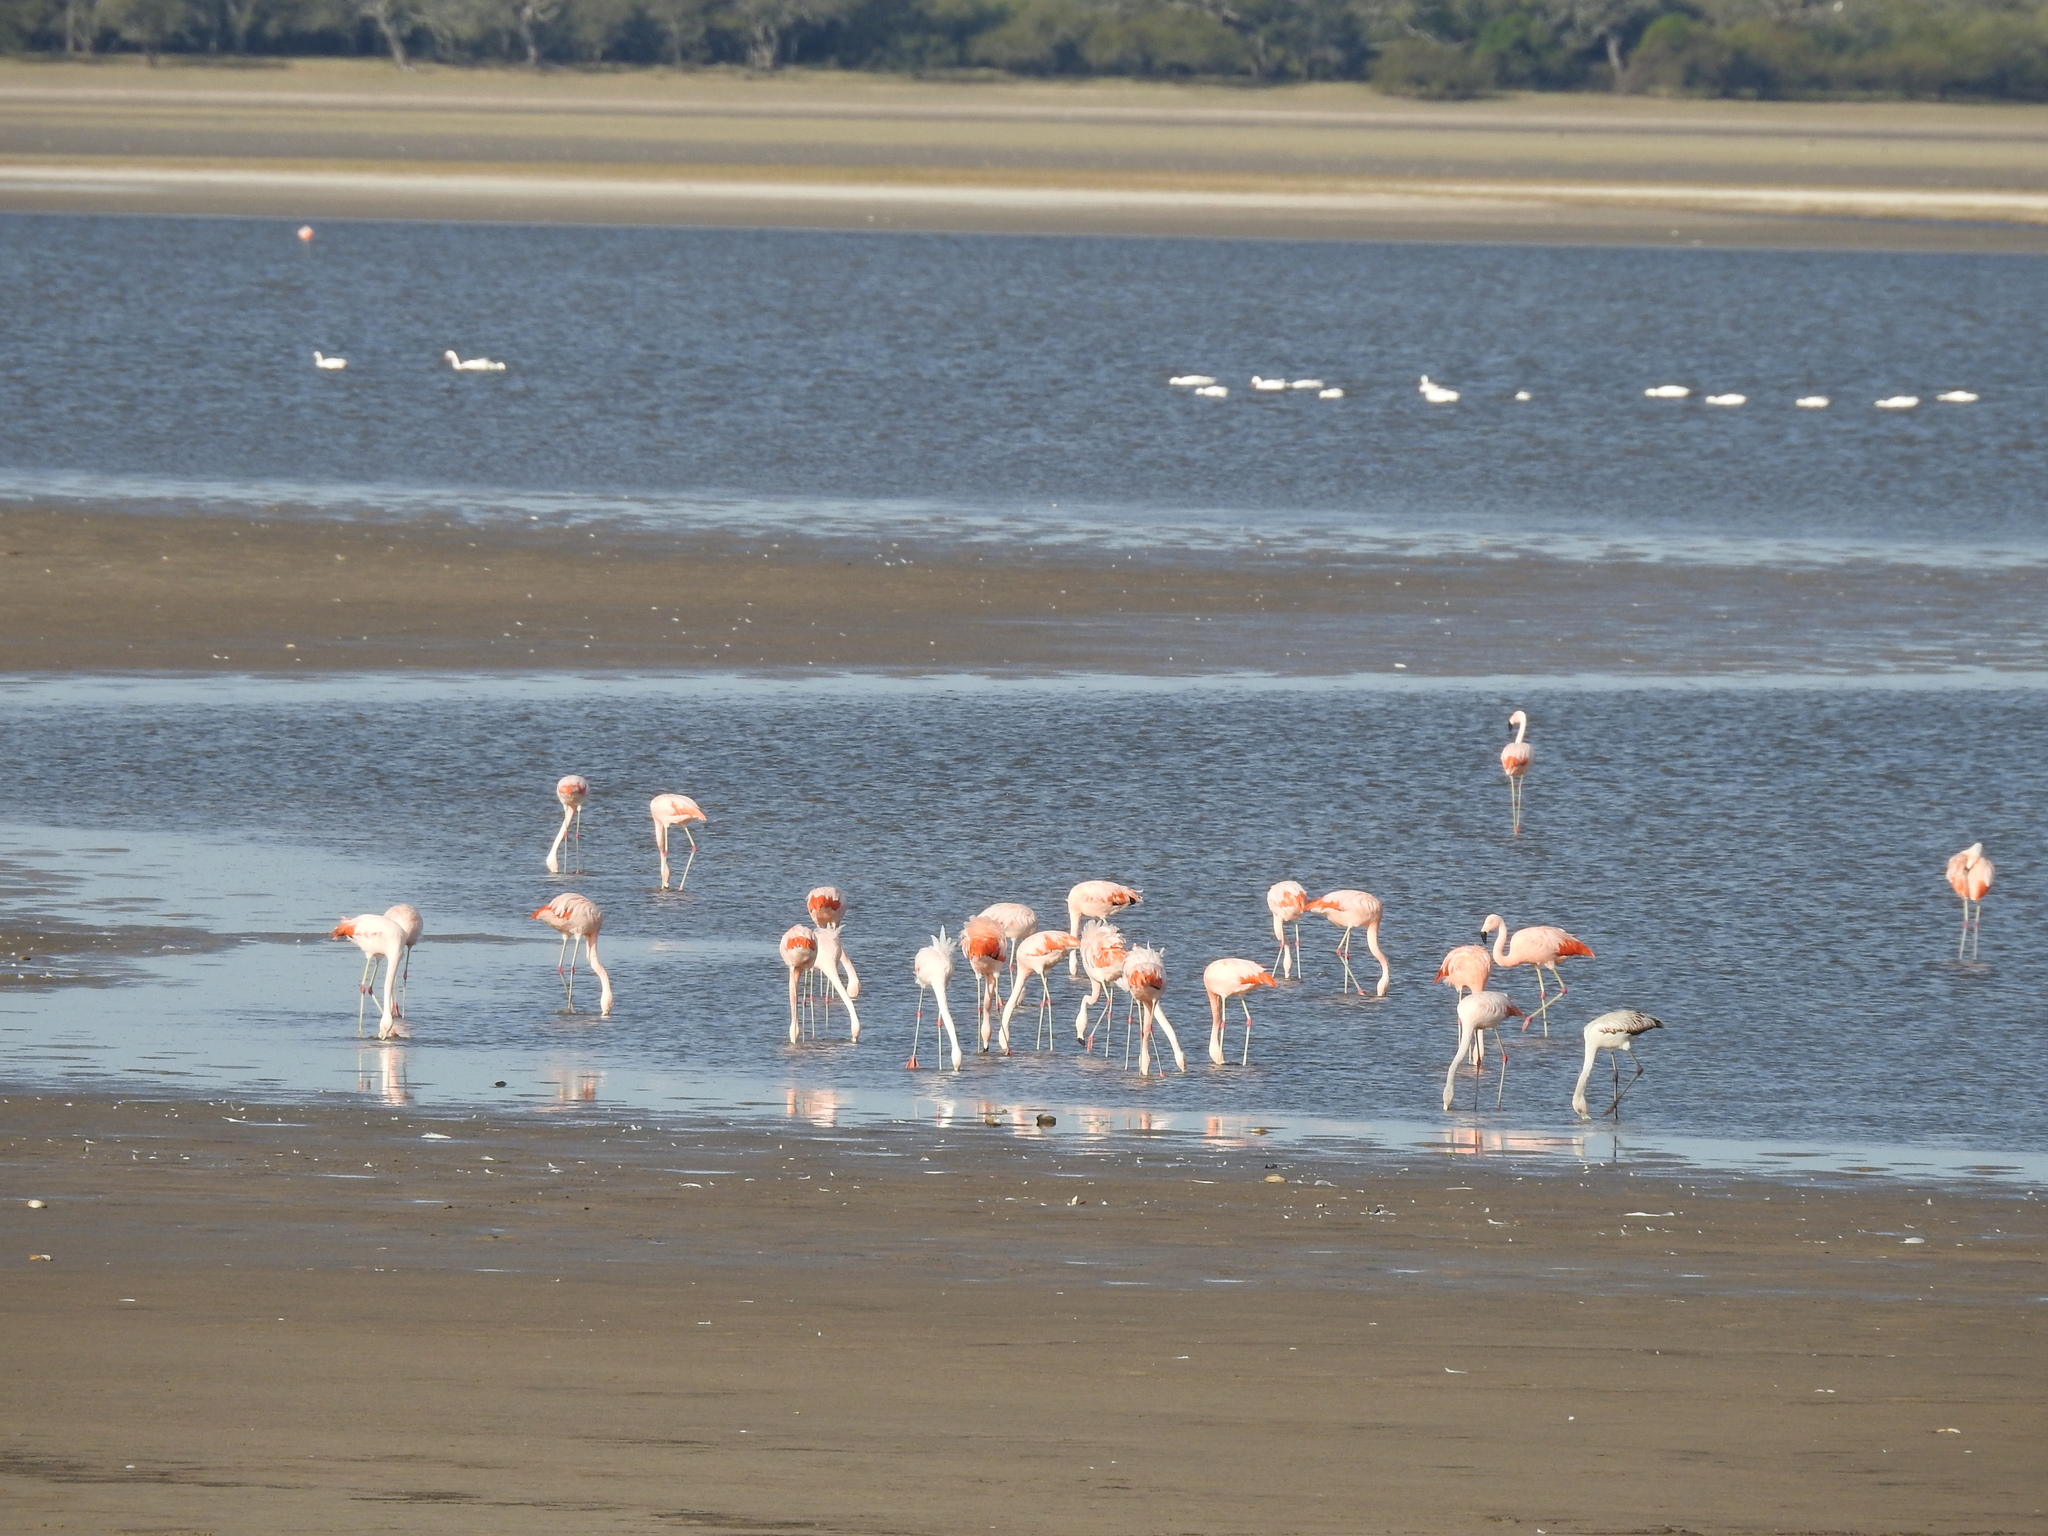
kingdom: Animalia
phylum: Chordata
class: Aves
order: Phoenicopteriformes
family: Phoenicopteridae
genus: Phoenicopterus
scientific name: Phoenicopterus chilensis
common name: Chilean flamingo
